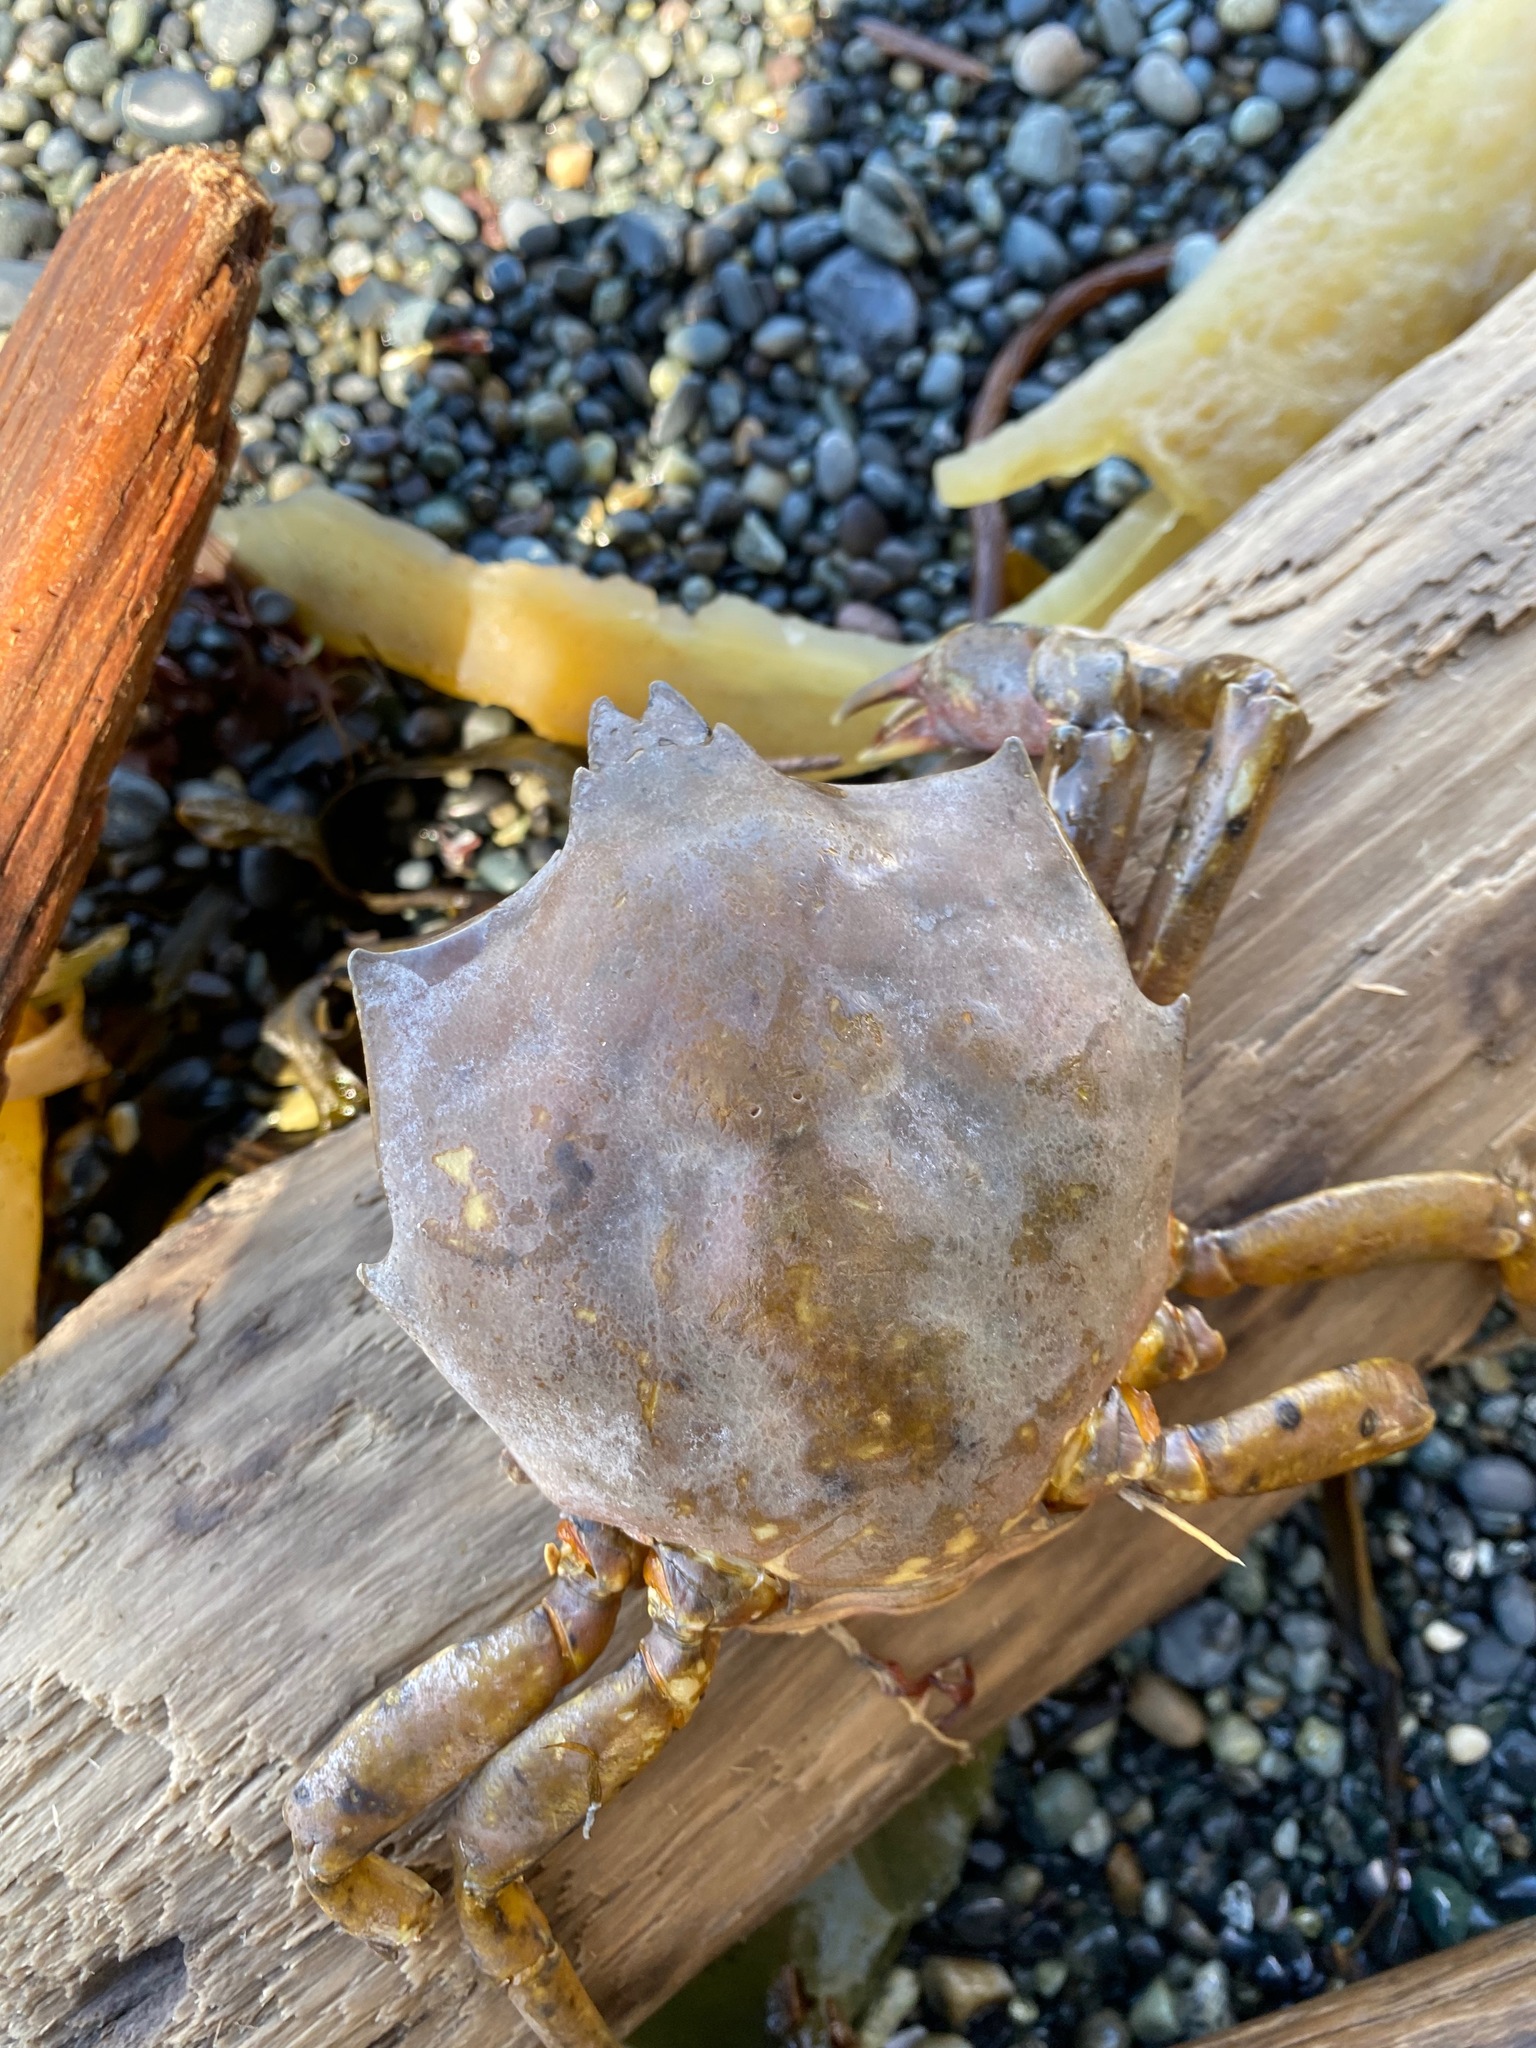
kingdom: Animalia
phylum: Arthropoda
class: Malacostraca
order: Decapoda
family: Epialtidae
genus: Pugettia
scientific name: Pugettia producta
